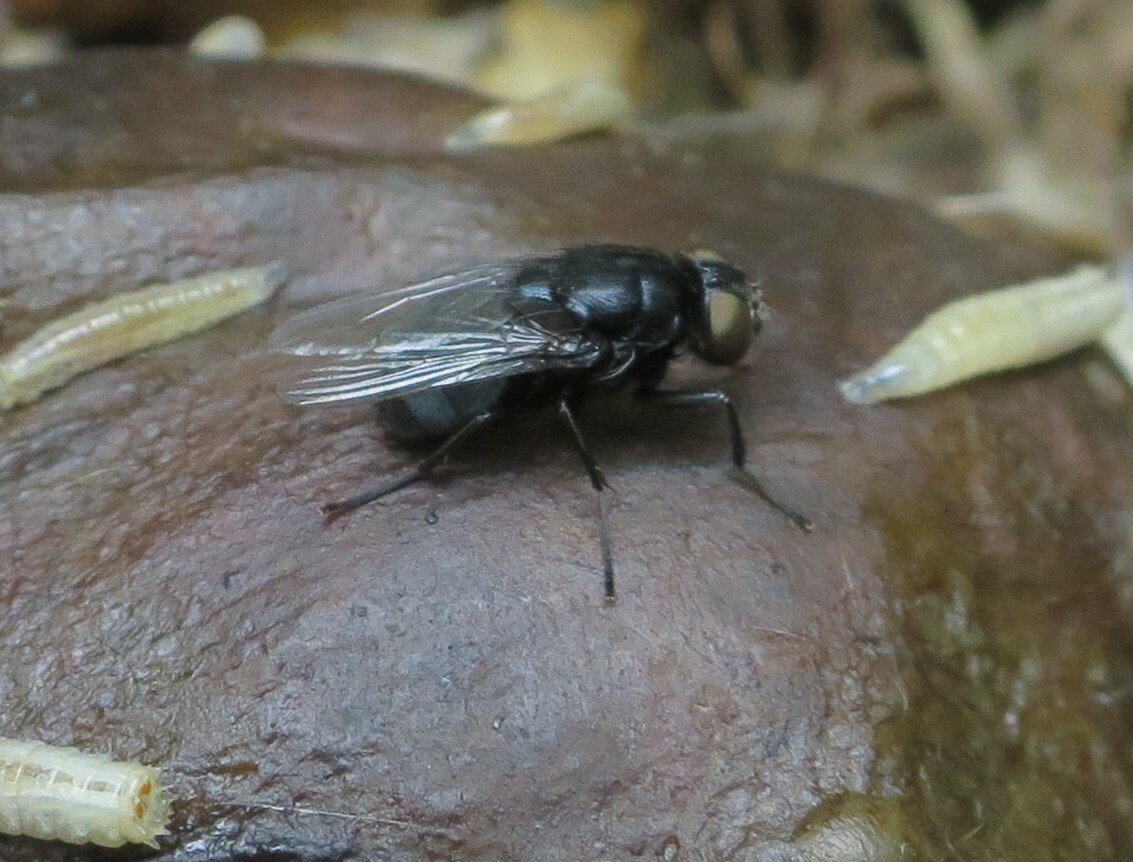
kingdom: Animalia
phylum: Arthropoda
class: Insecta
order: Diptera
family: Muscidae
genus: Australophyra
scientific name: Australophyra rostrata
